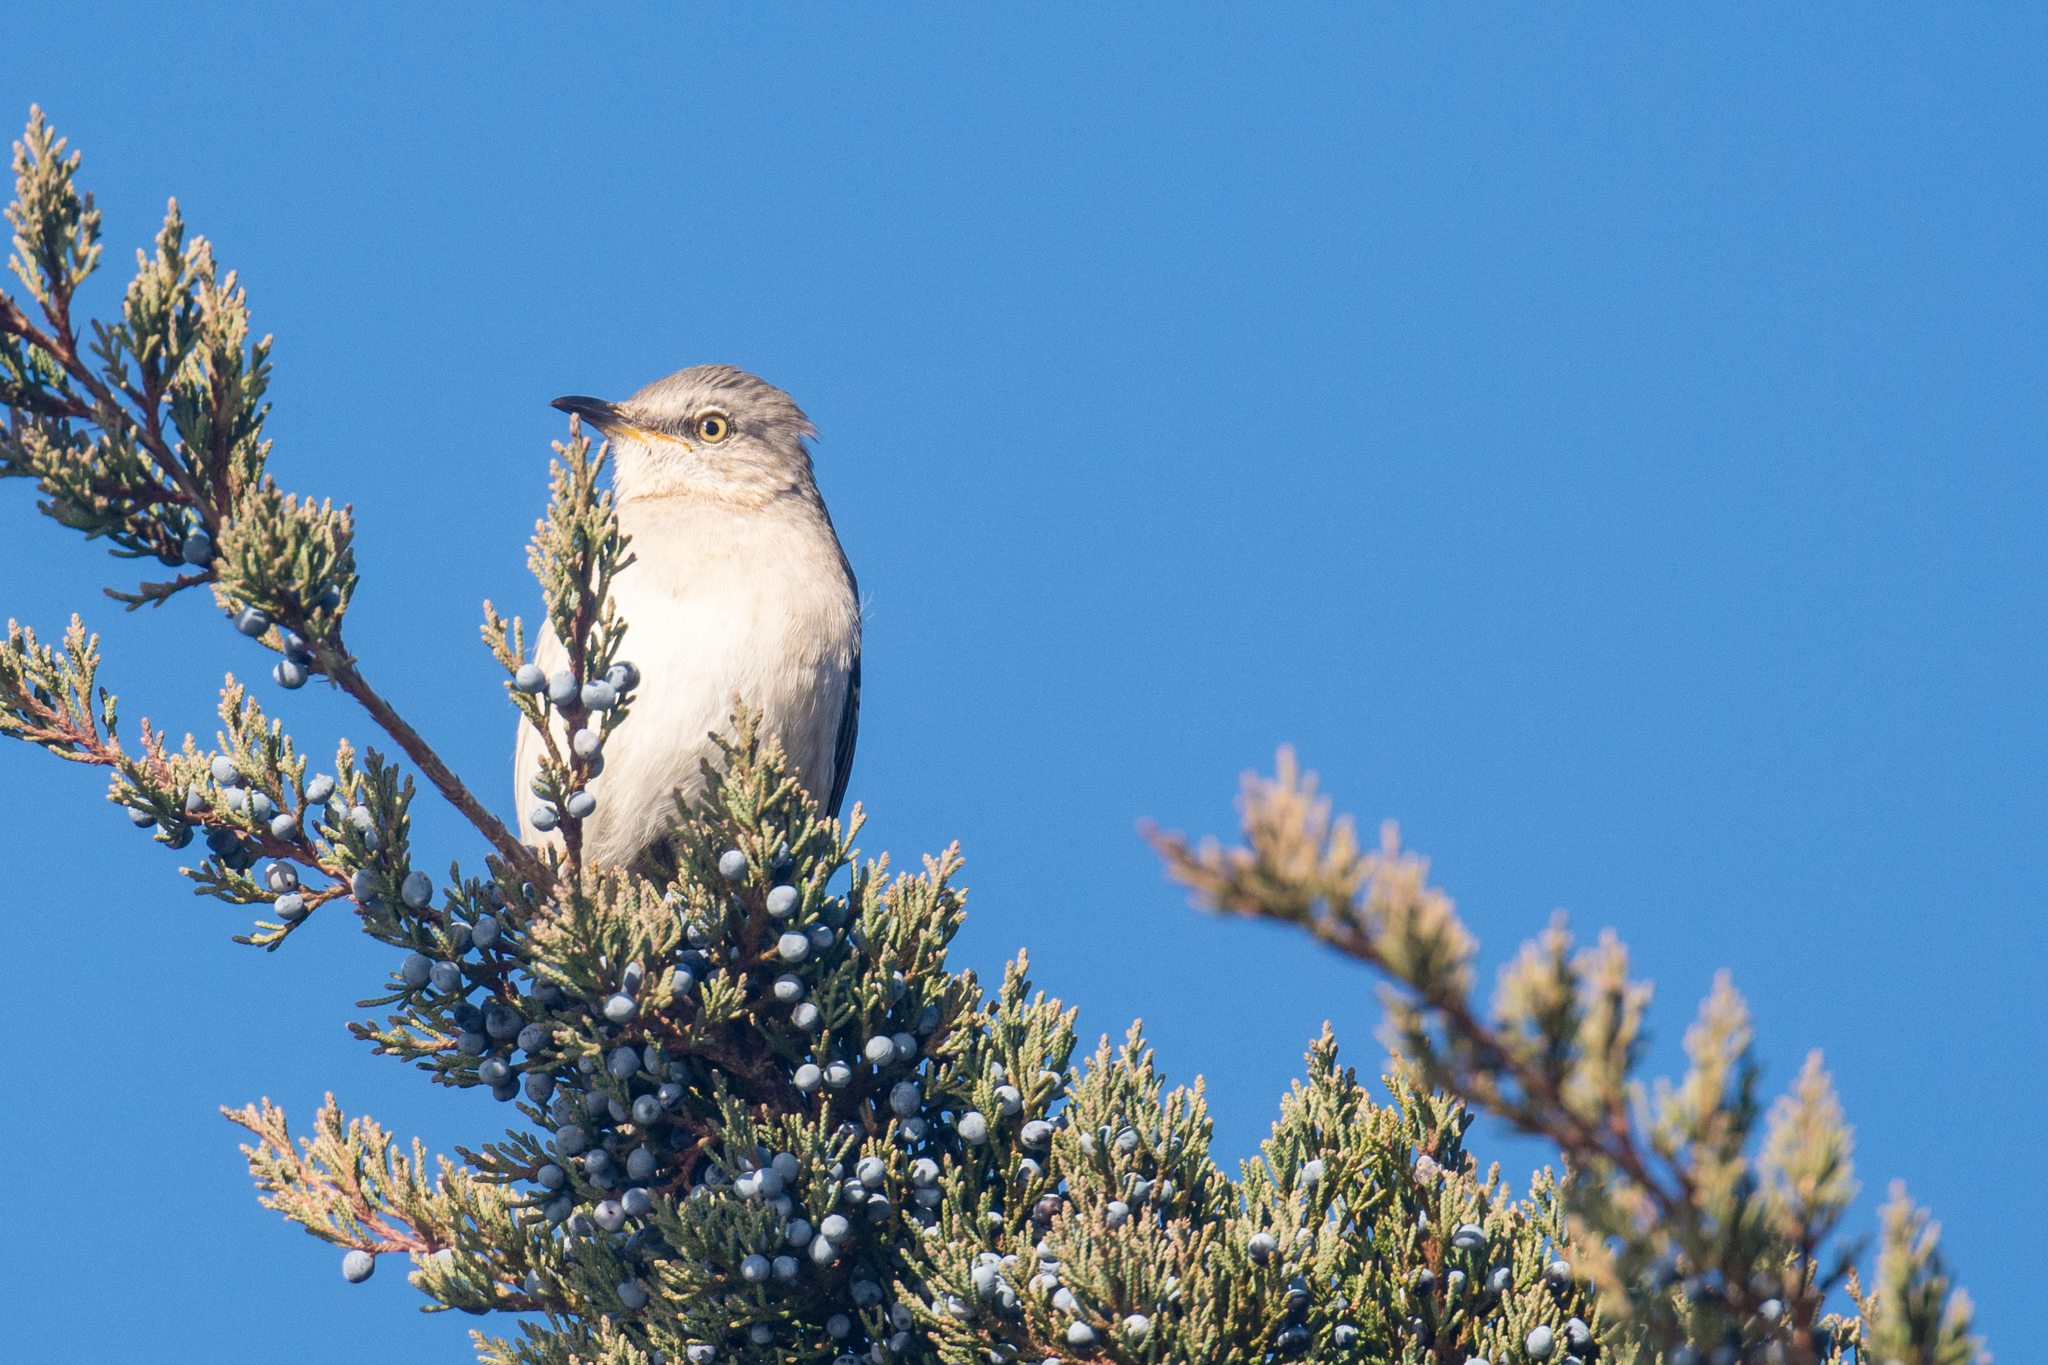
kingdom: Animalia
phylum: Chordata
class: Aves
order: Passeriformes
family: Mimidae
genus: Mimus
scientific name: Mimus polyglottos
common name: Northern mockingbird
